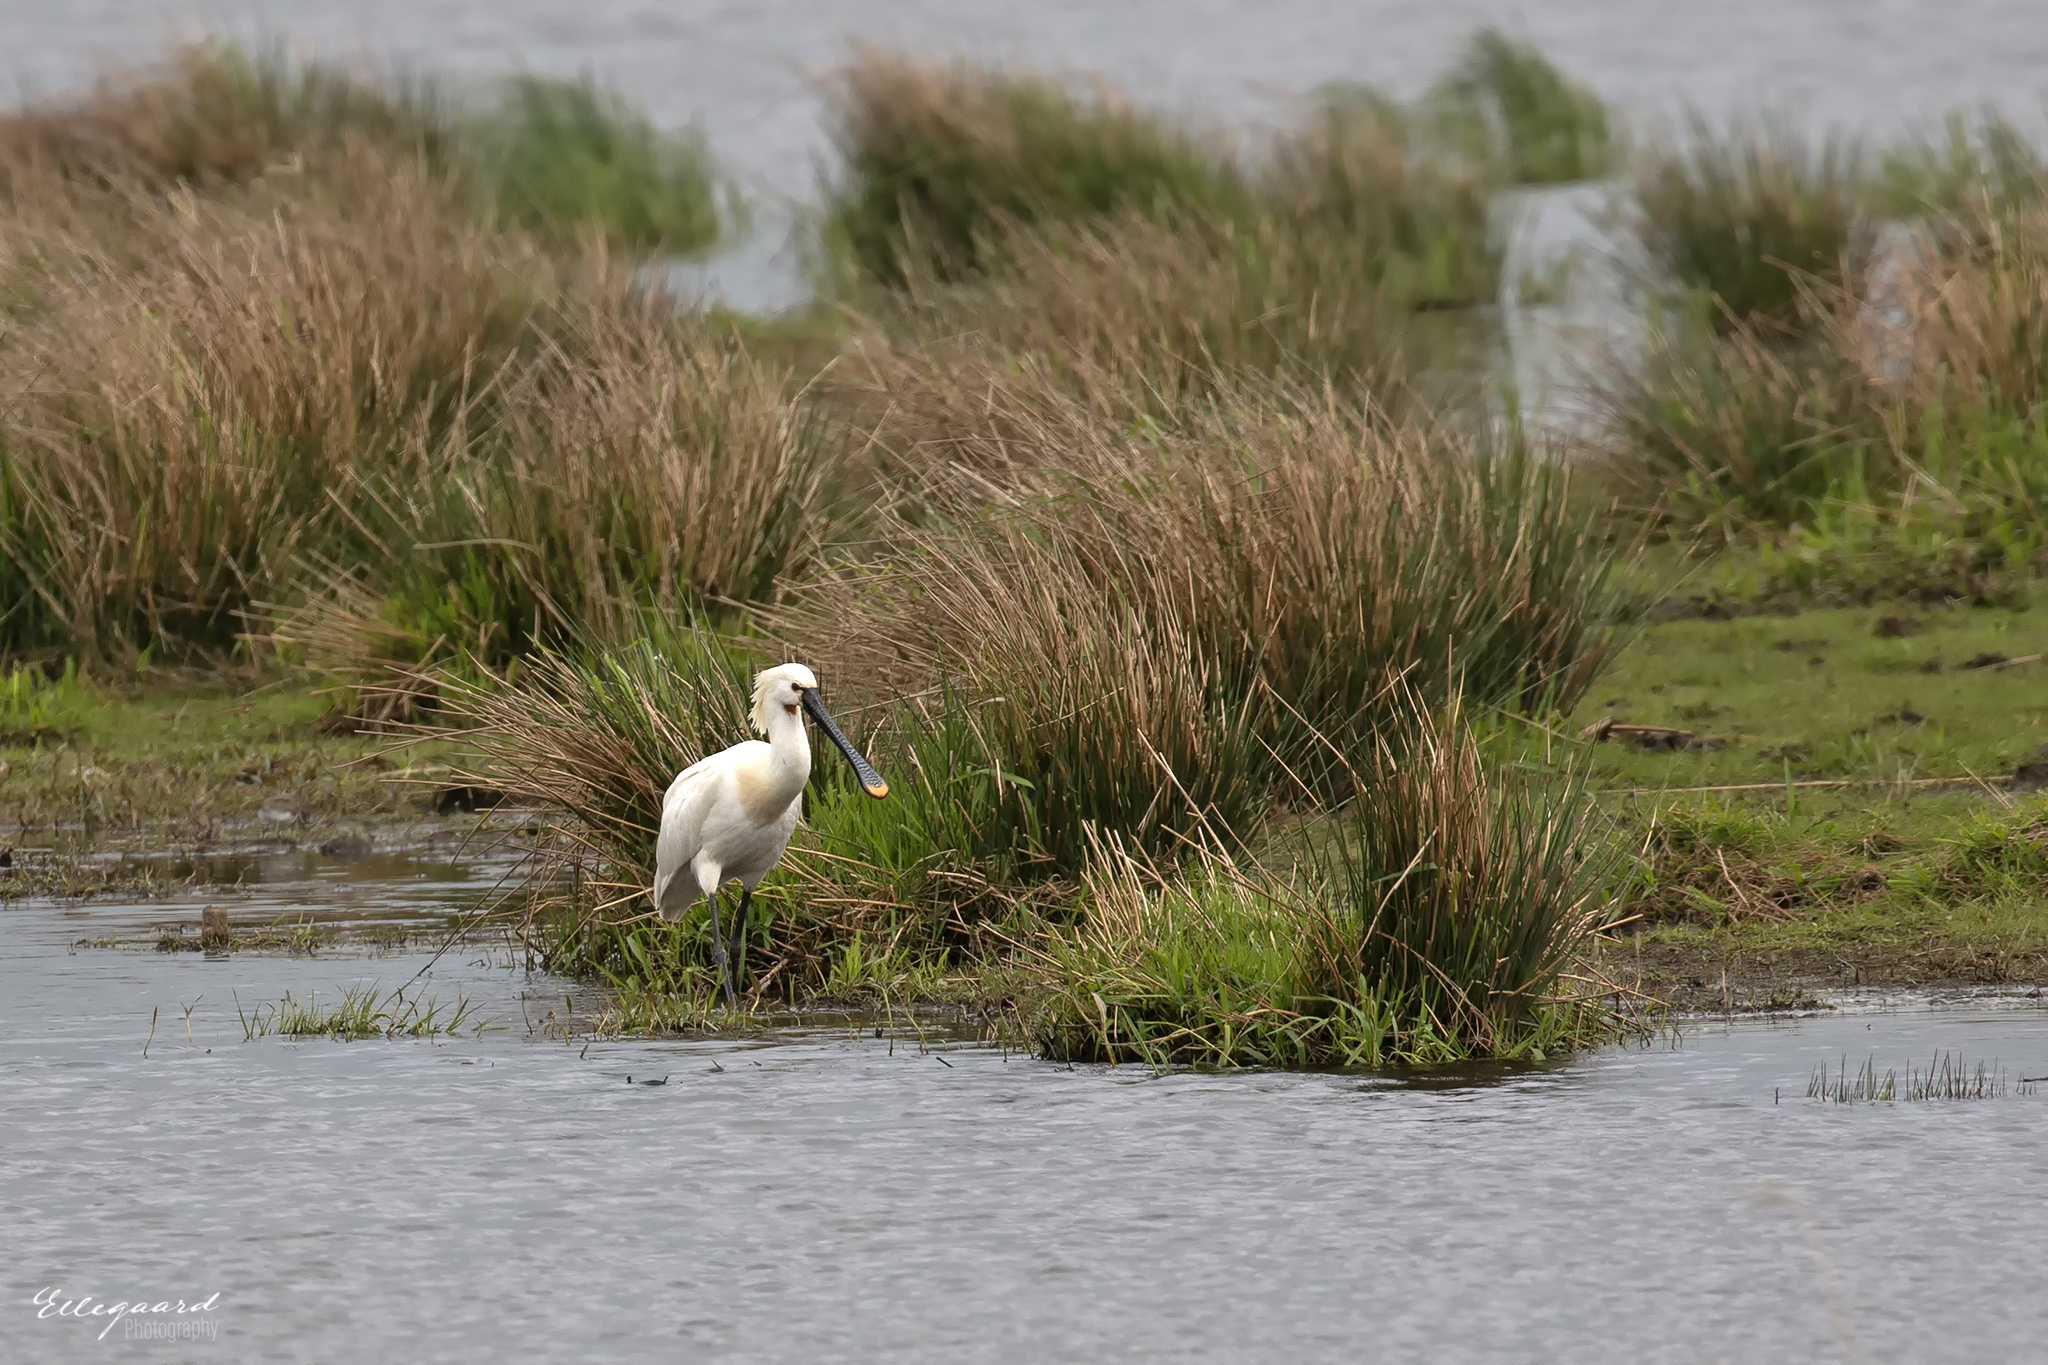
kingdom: Animalia
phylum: Chordata
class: Aves
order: Pelecaniformes
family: Threskiornithidae
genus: Platalea
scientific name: Platalea leucorodia
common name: Eurasian spoonbill
